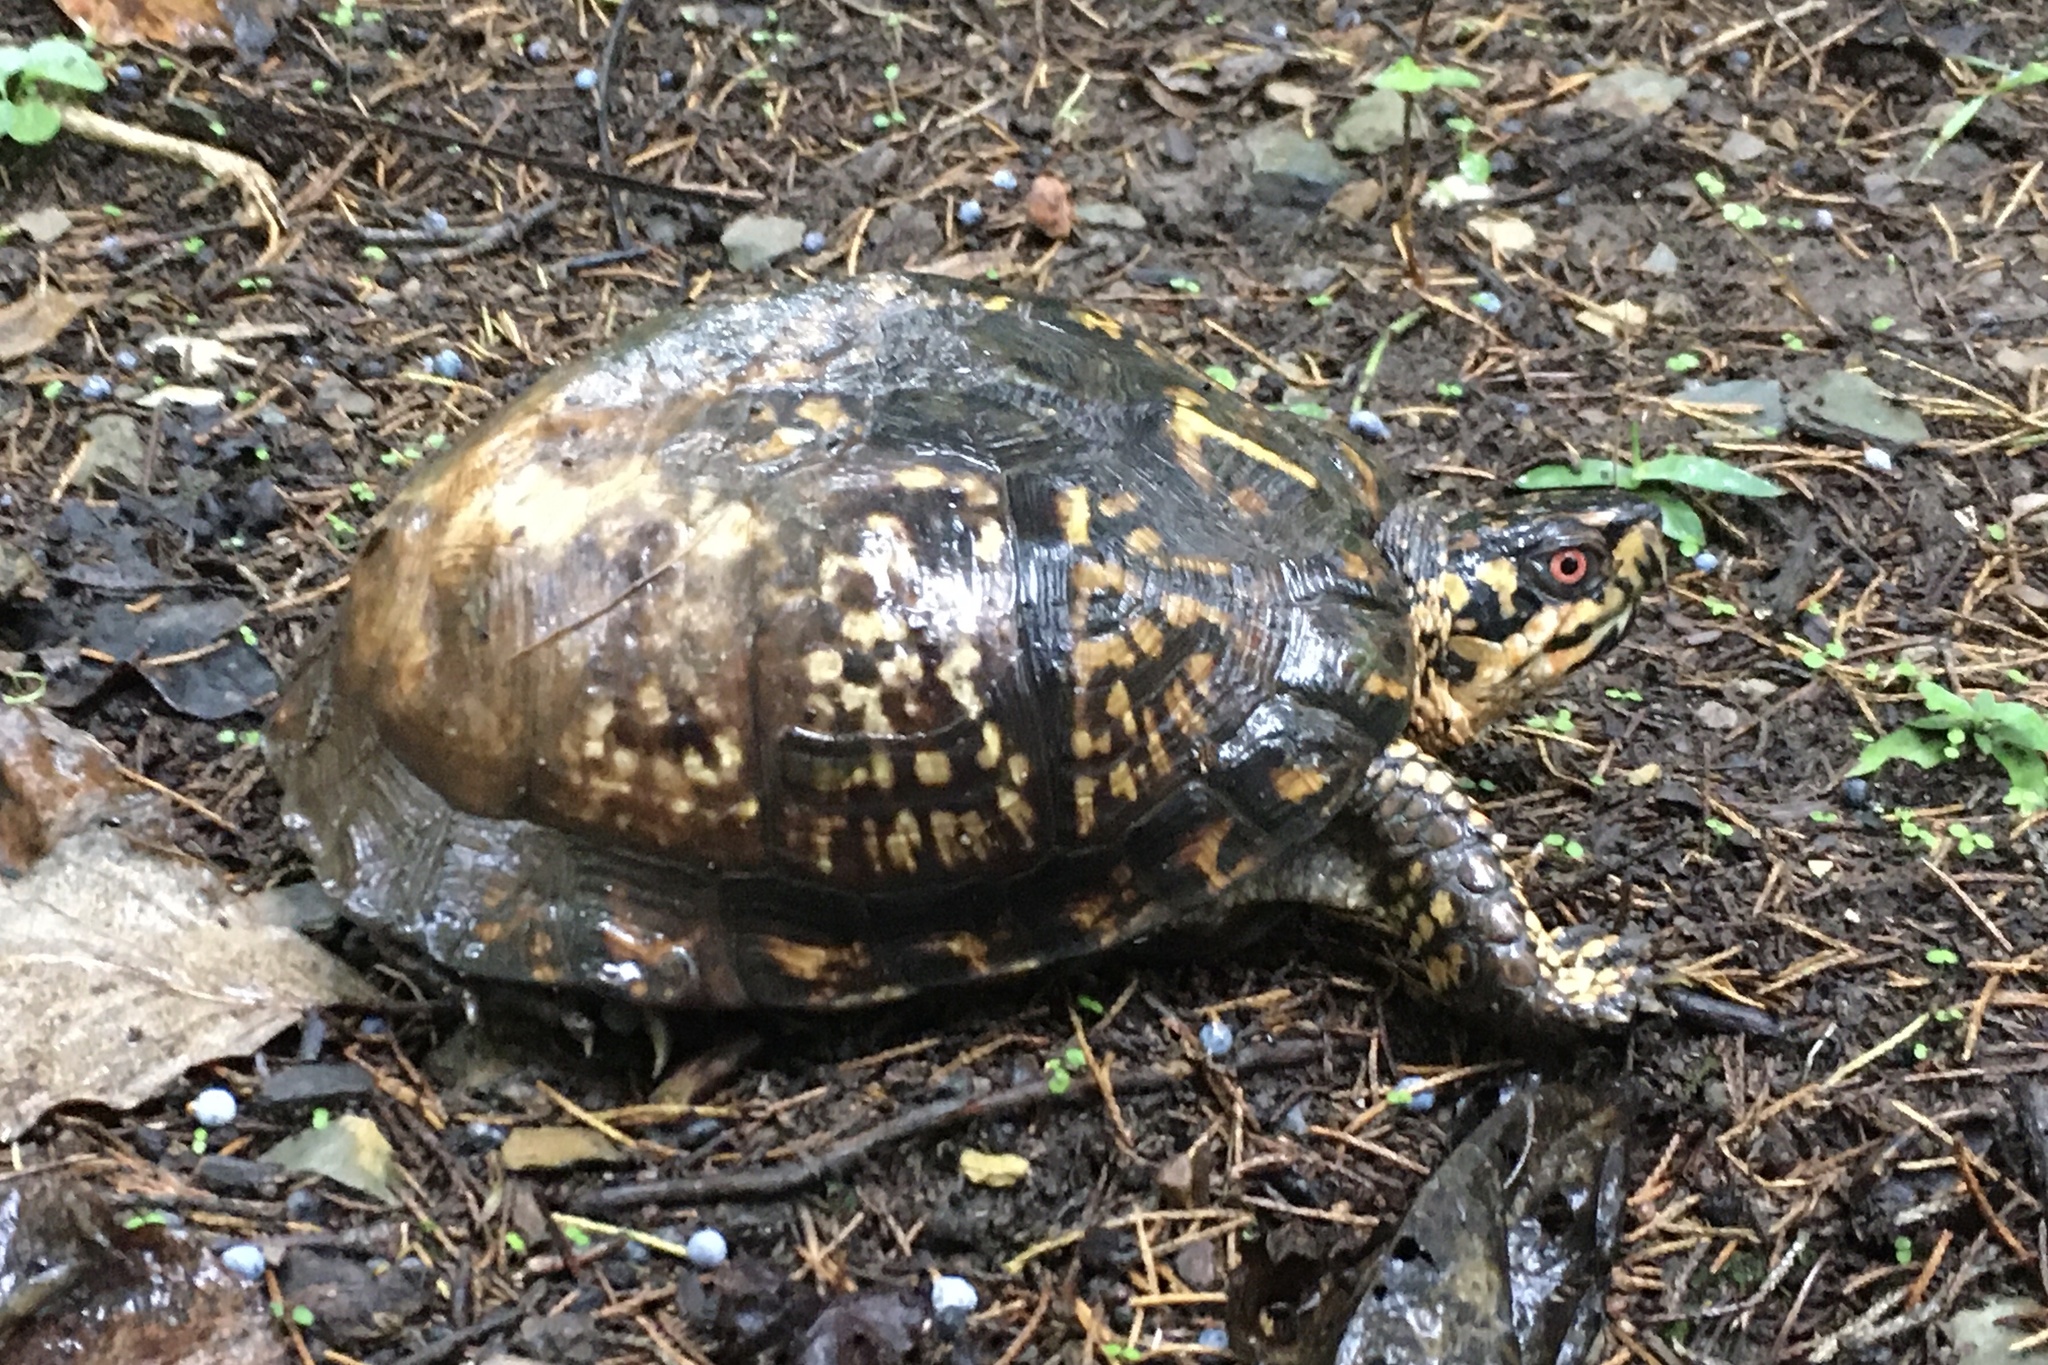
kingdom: Animalia
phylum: Chordata
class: Testudines
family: Emydidae
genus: Terrapene
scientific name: Terrapene carolina
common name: Common box turtle
